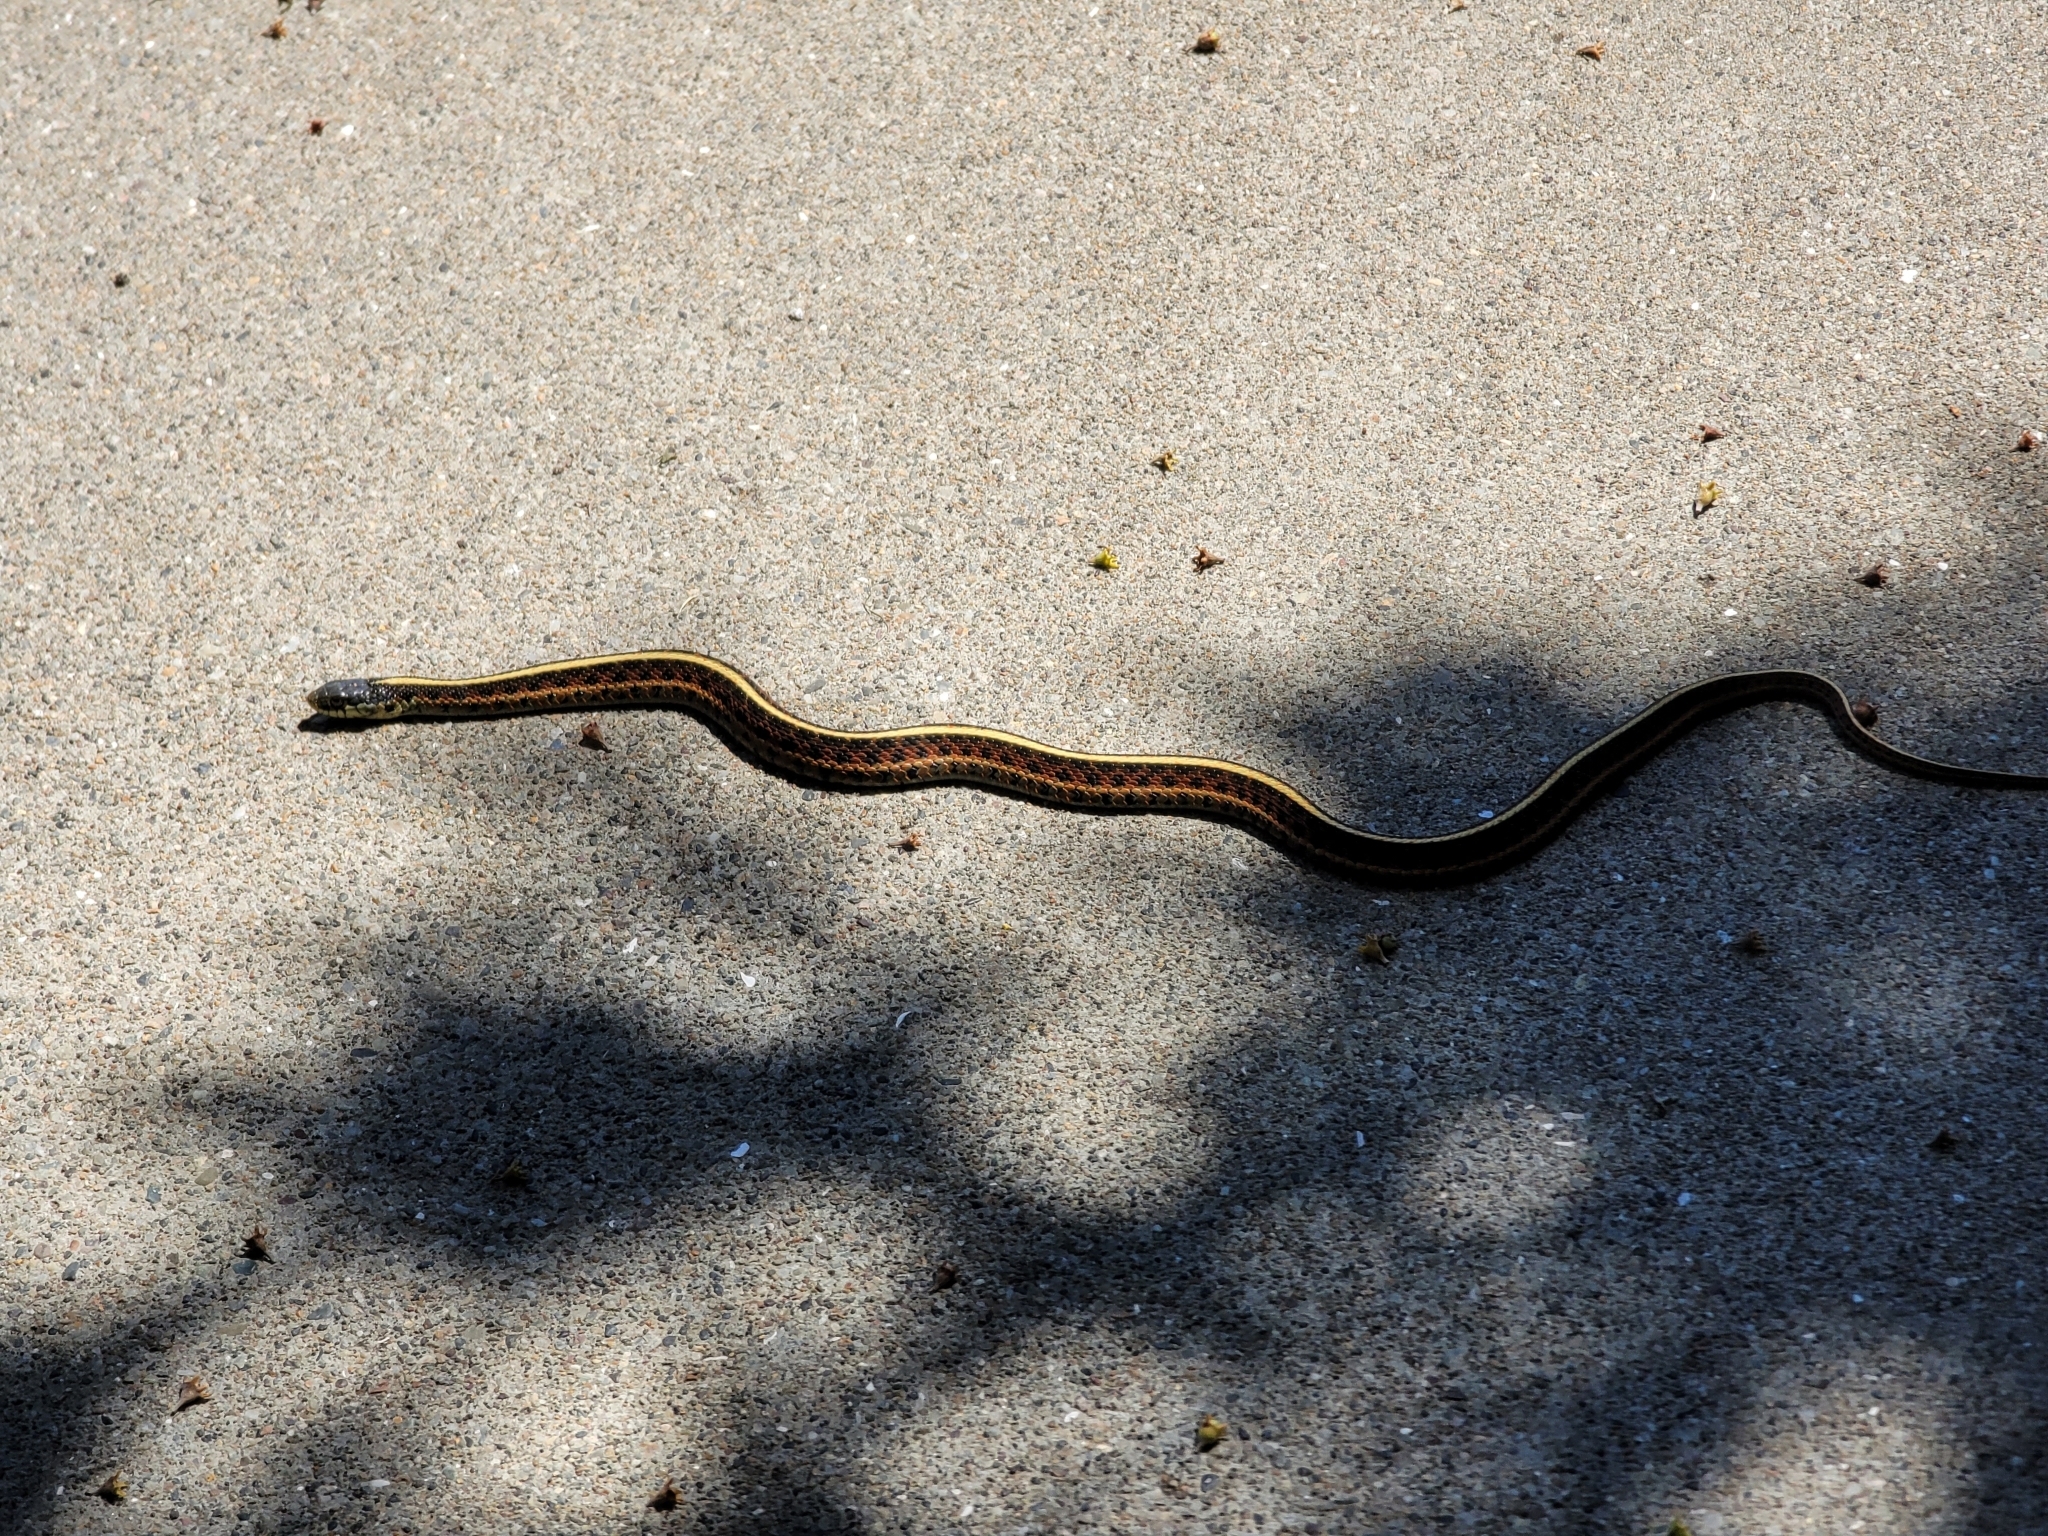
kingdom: Animalia
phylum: Chordata
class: Squamata
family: Colubridae
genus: Thamnophis
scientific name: Thamnophis elegans
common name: Western terrestrial garter snake
